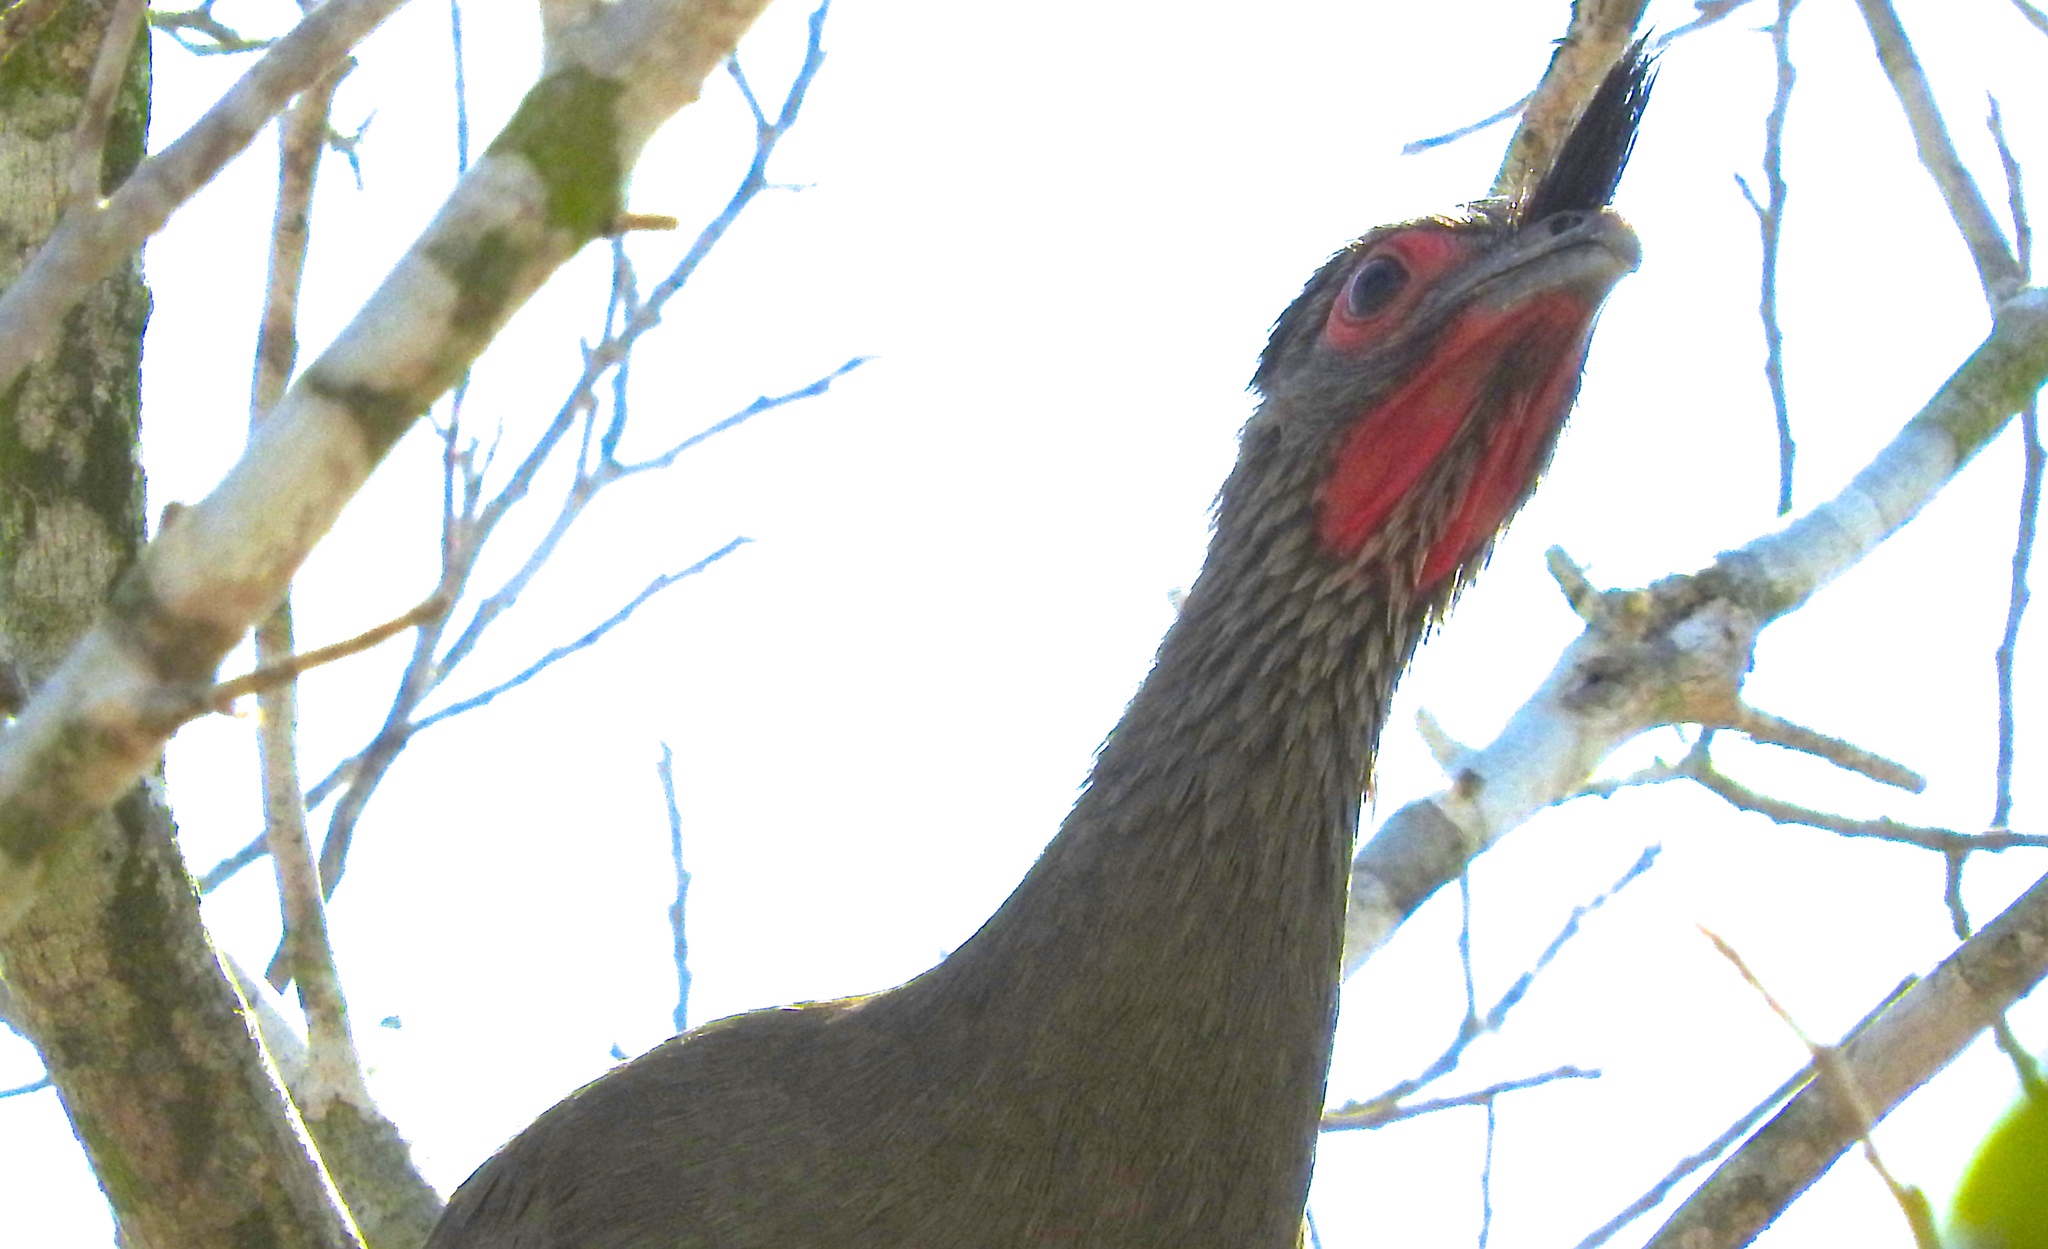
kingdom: Animalia
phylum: Chordata
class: Aves
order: Galliformes
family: Cracidae
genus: Ortalis
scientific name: Ortalis wagleri
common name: Rufous-bellied chachalaca
